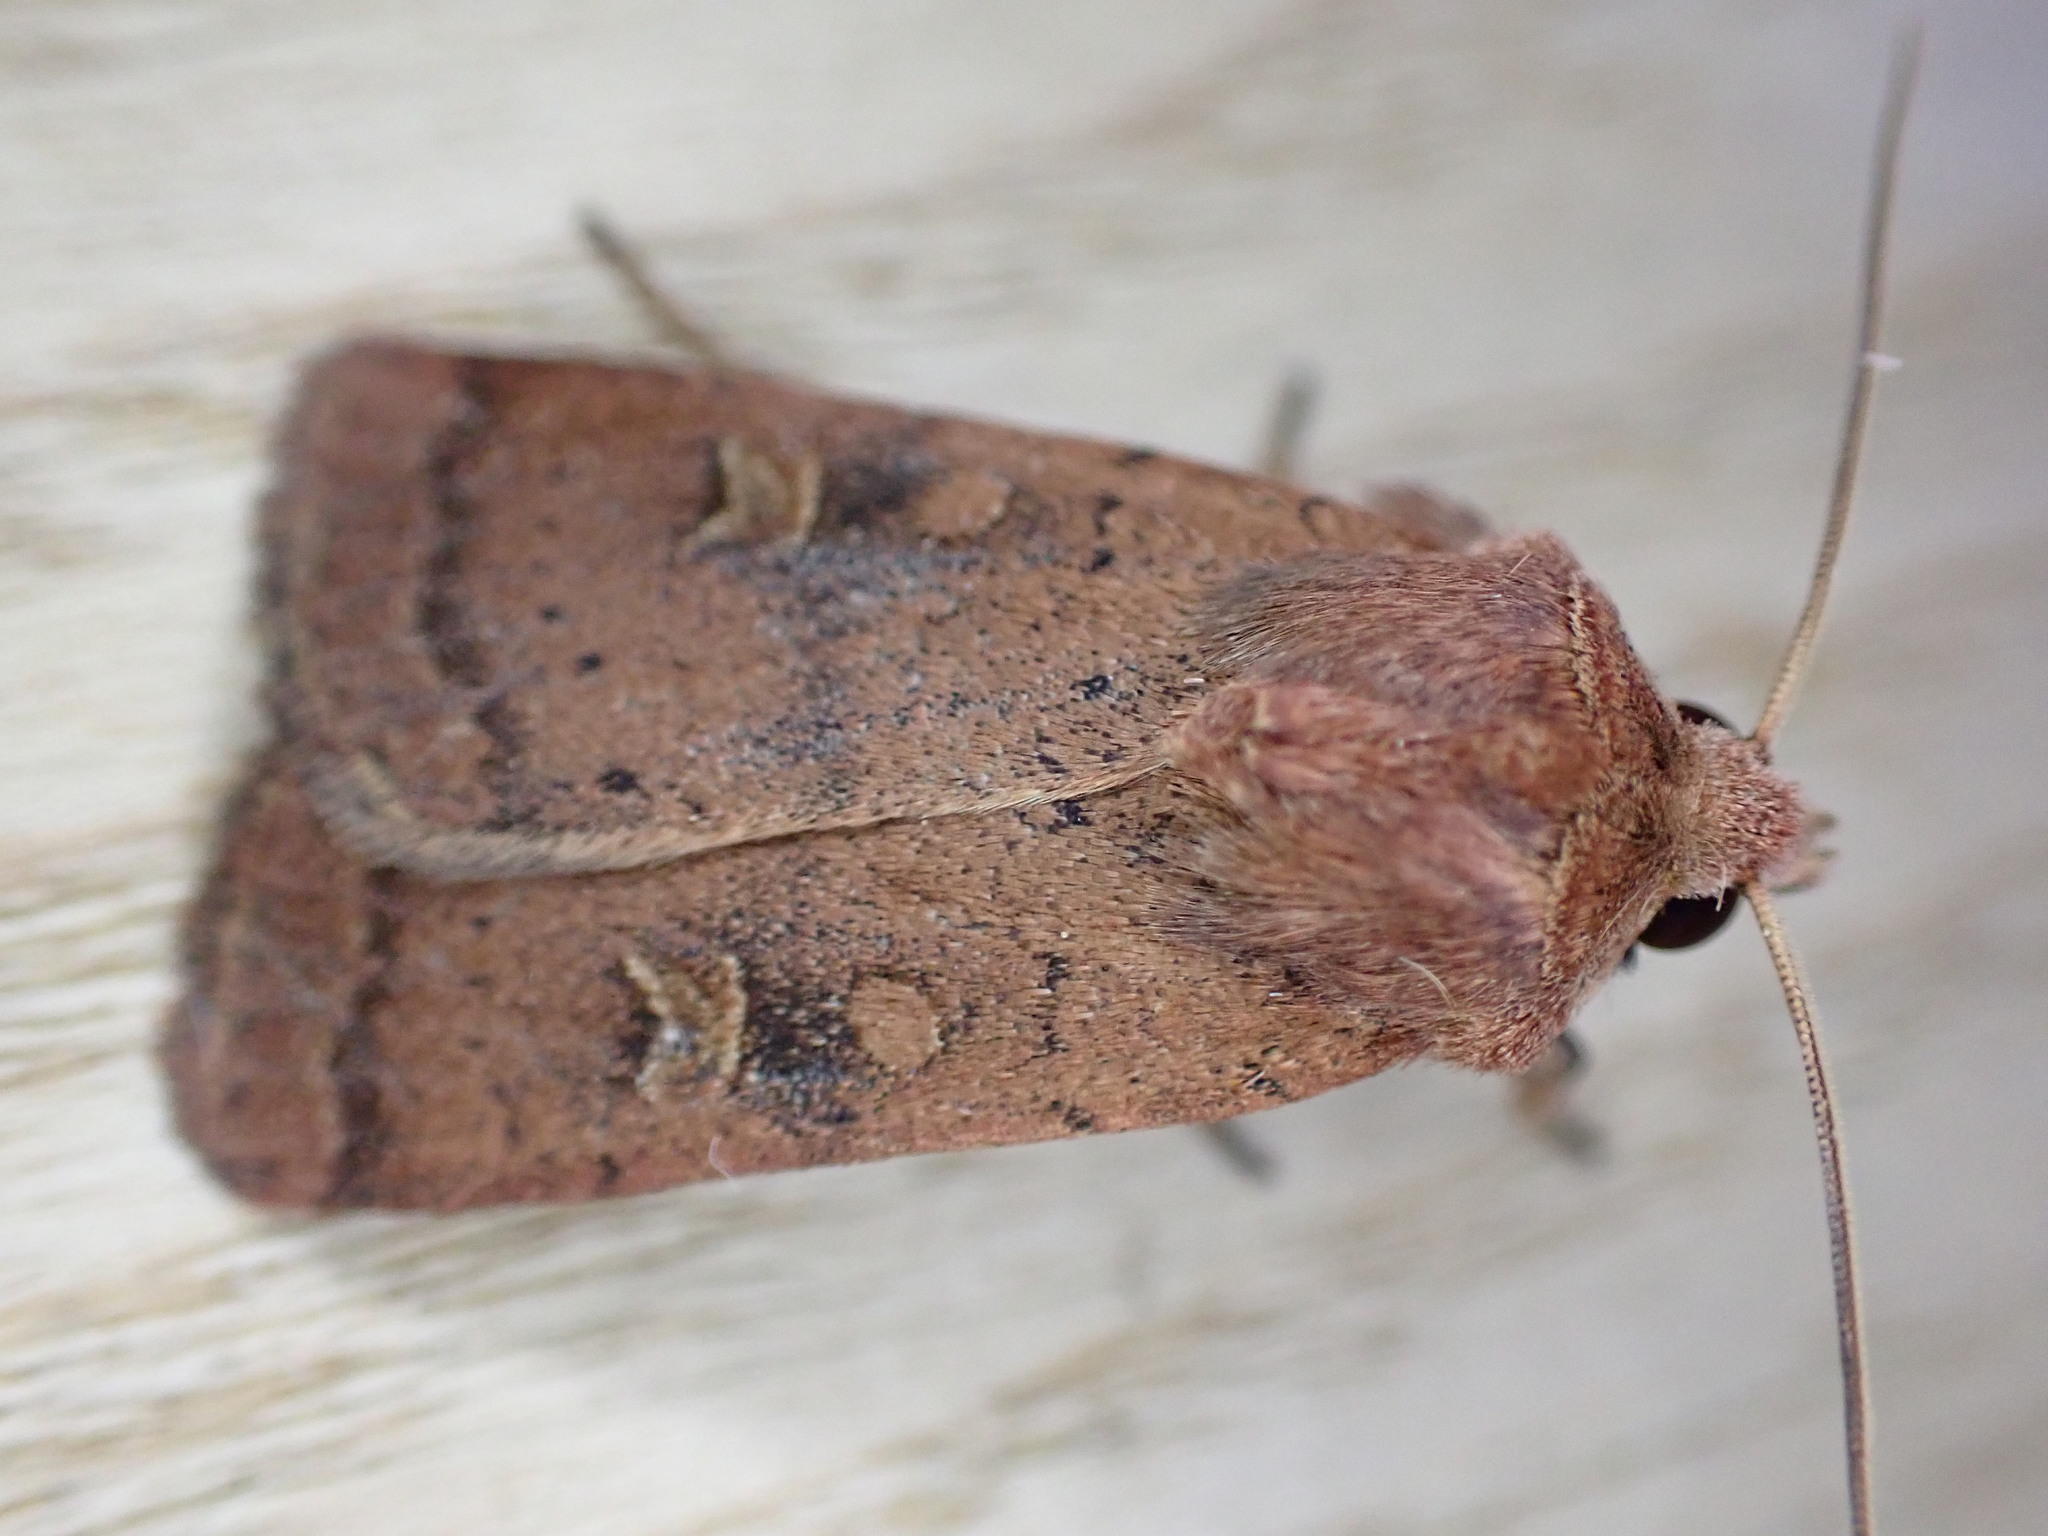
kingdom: Animalia
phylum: Arthropoda
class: Insecta
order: Lepidoptera
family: Noctuidae
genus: Xestia
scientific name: Xestia xanthographa
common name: Square-spot rustic
